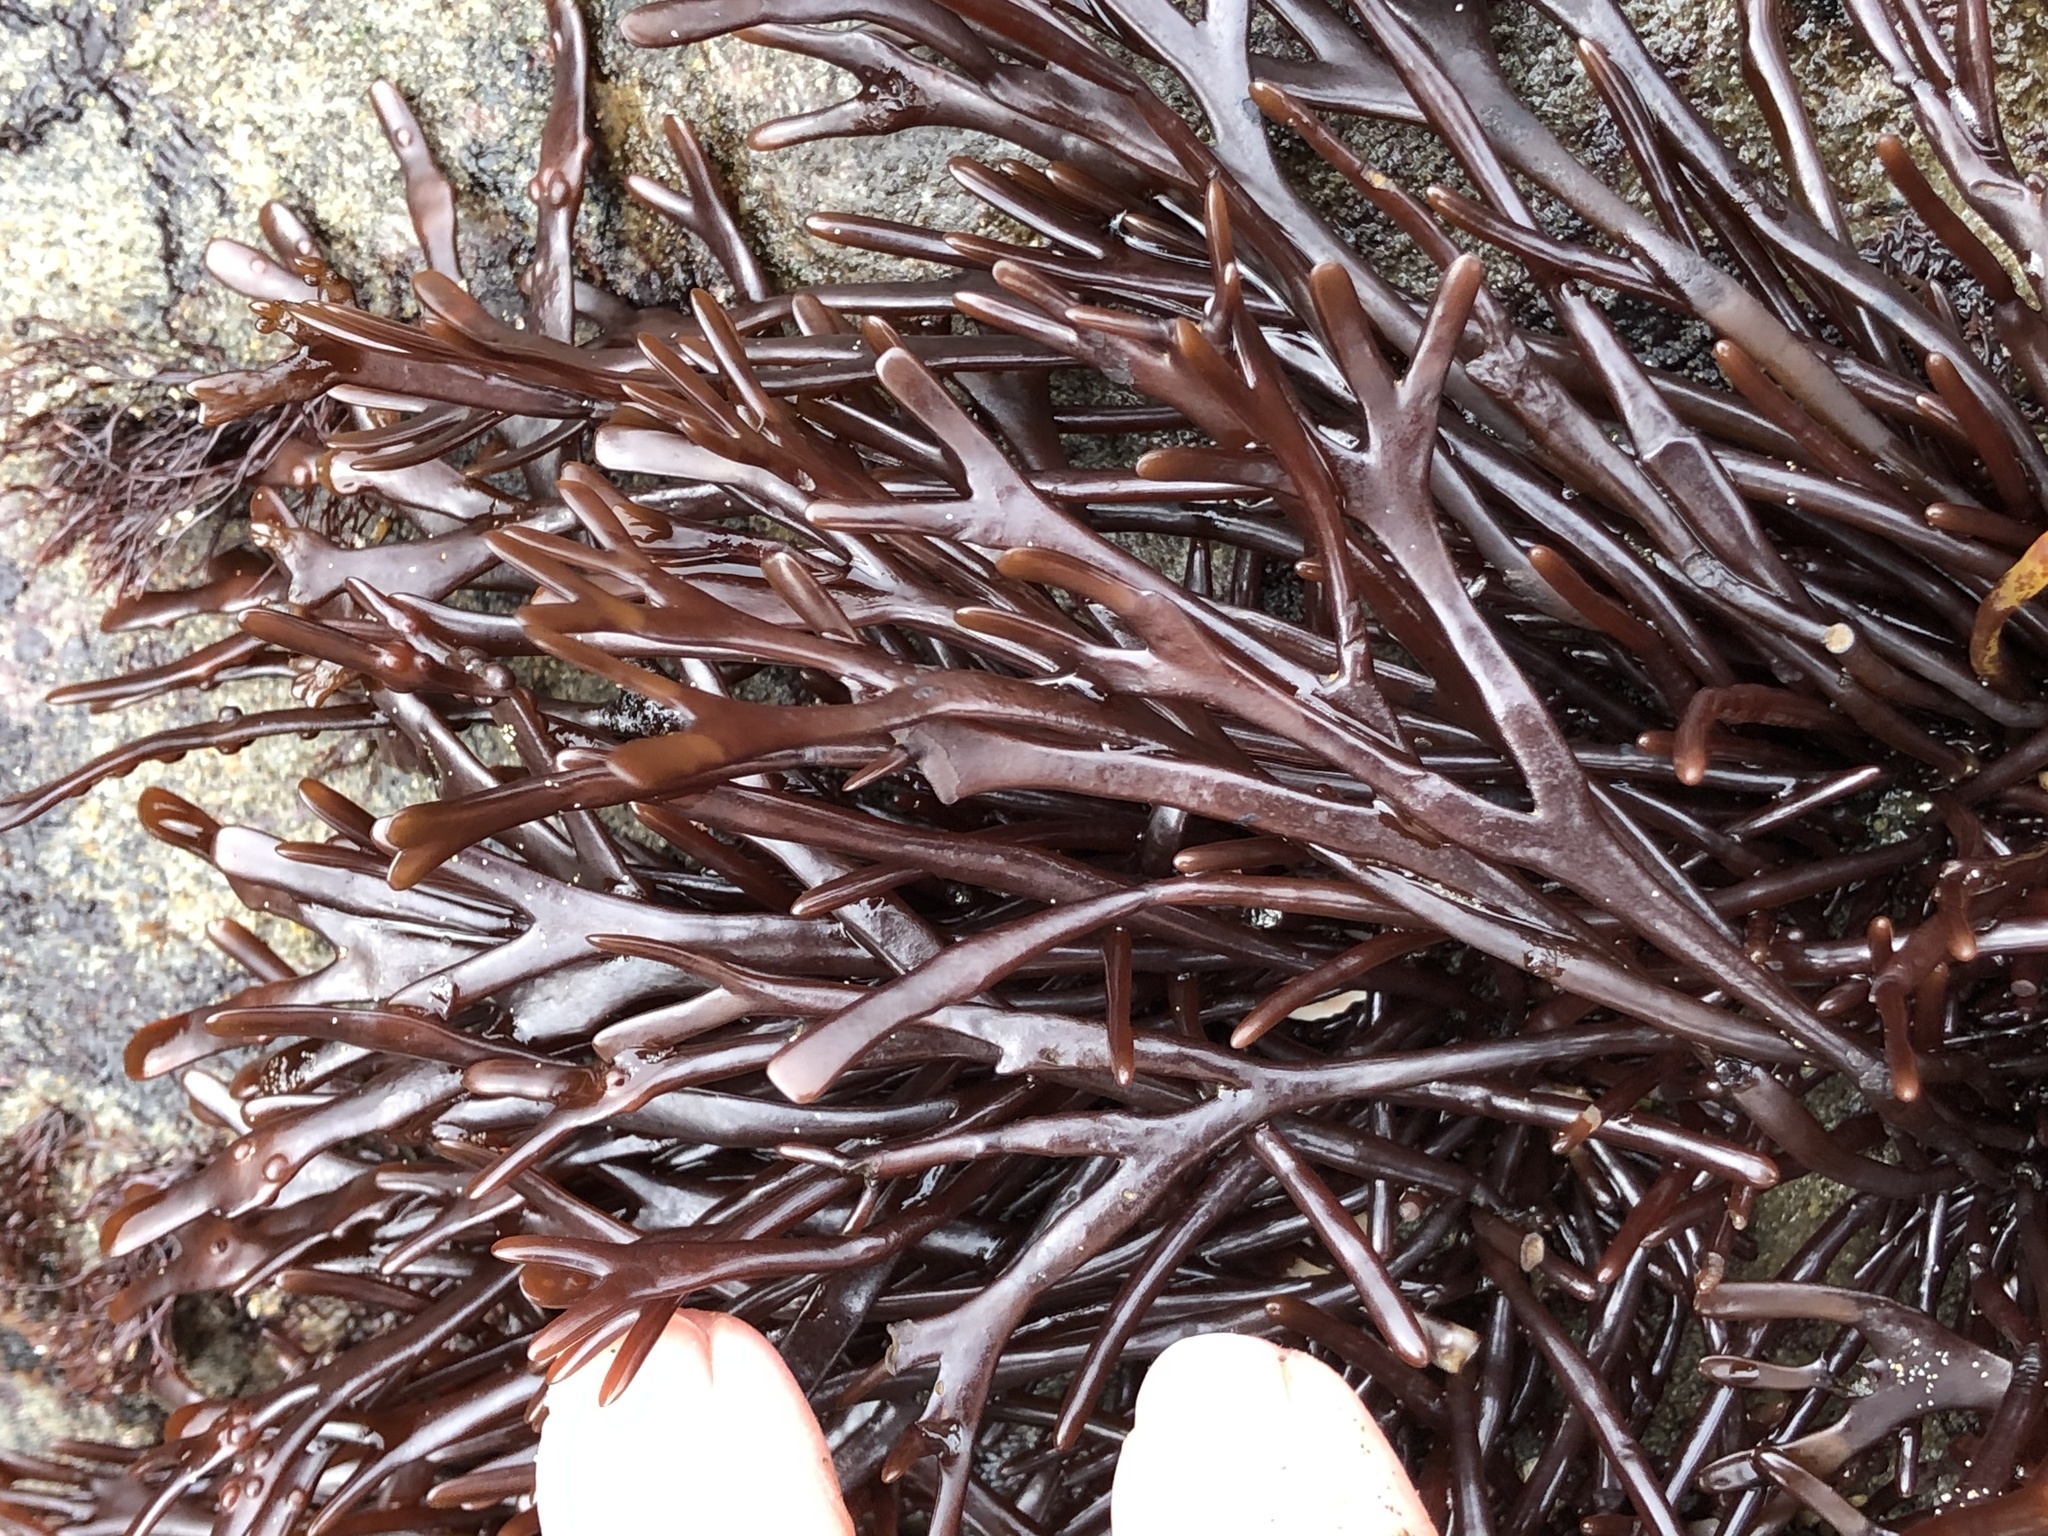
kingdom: Plantae
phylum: Rhodophyta
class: Florideophyceae
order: Gigartinales
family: Phyllophoraceae
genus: Ahnfeltiopsis
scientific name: Ahnfeltiopsis linearis
